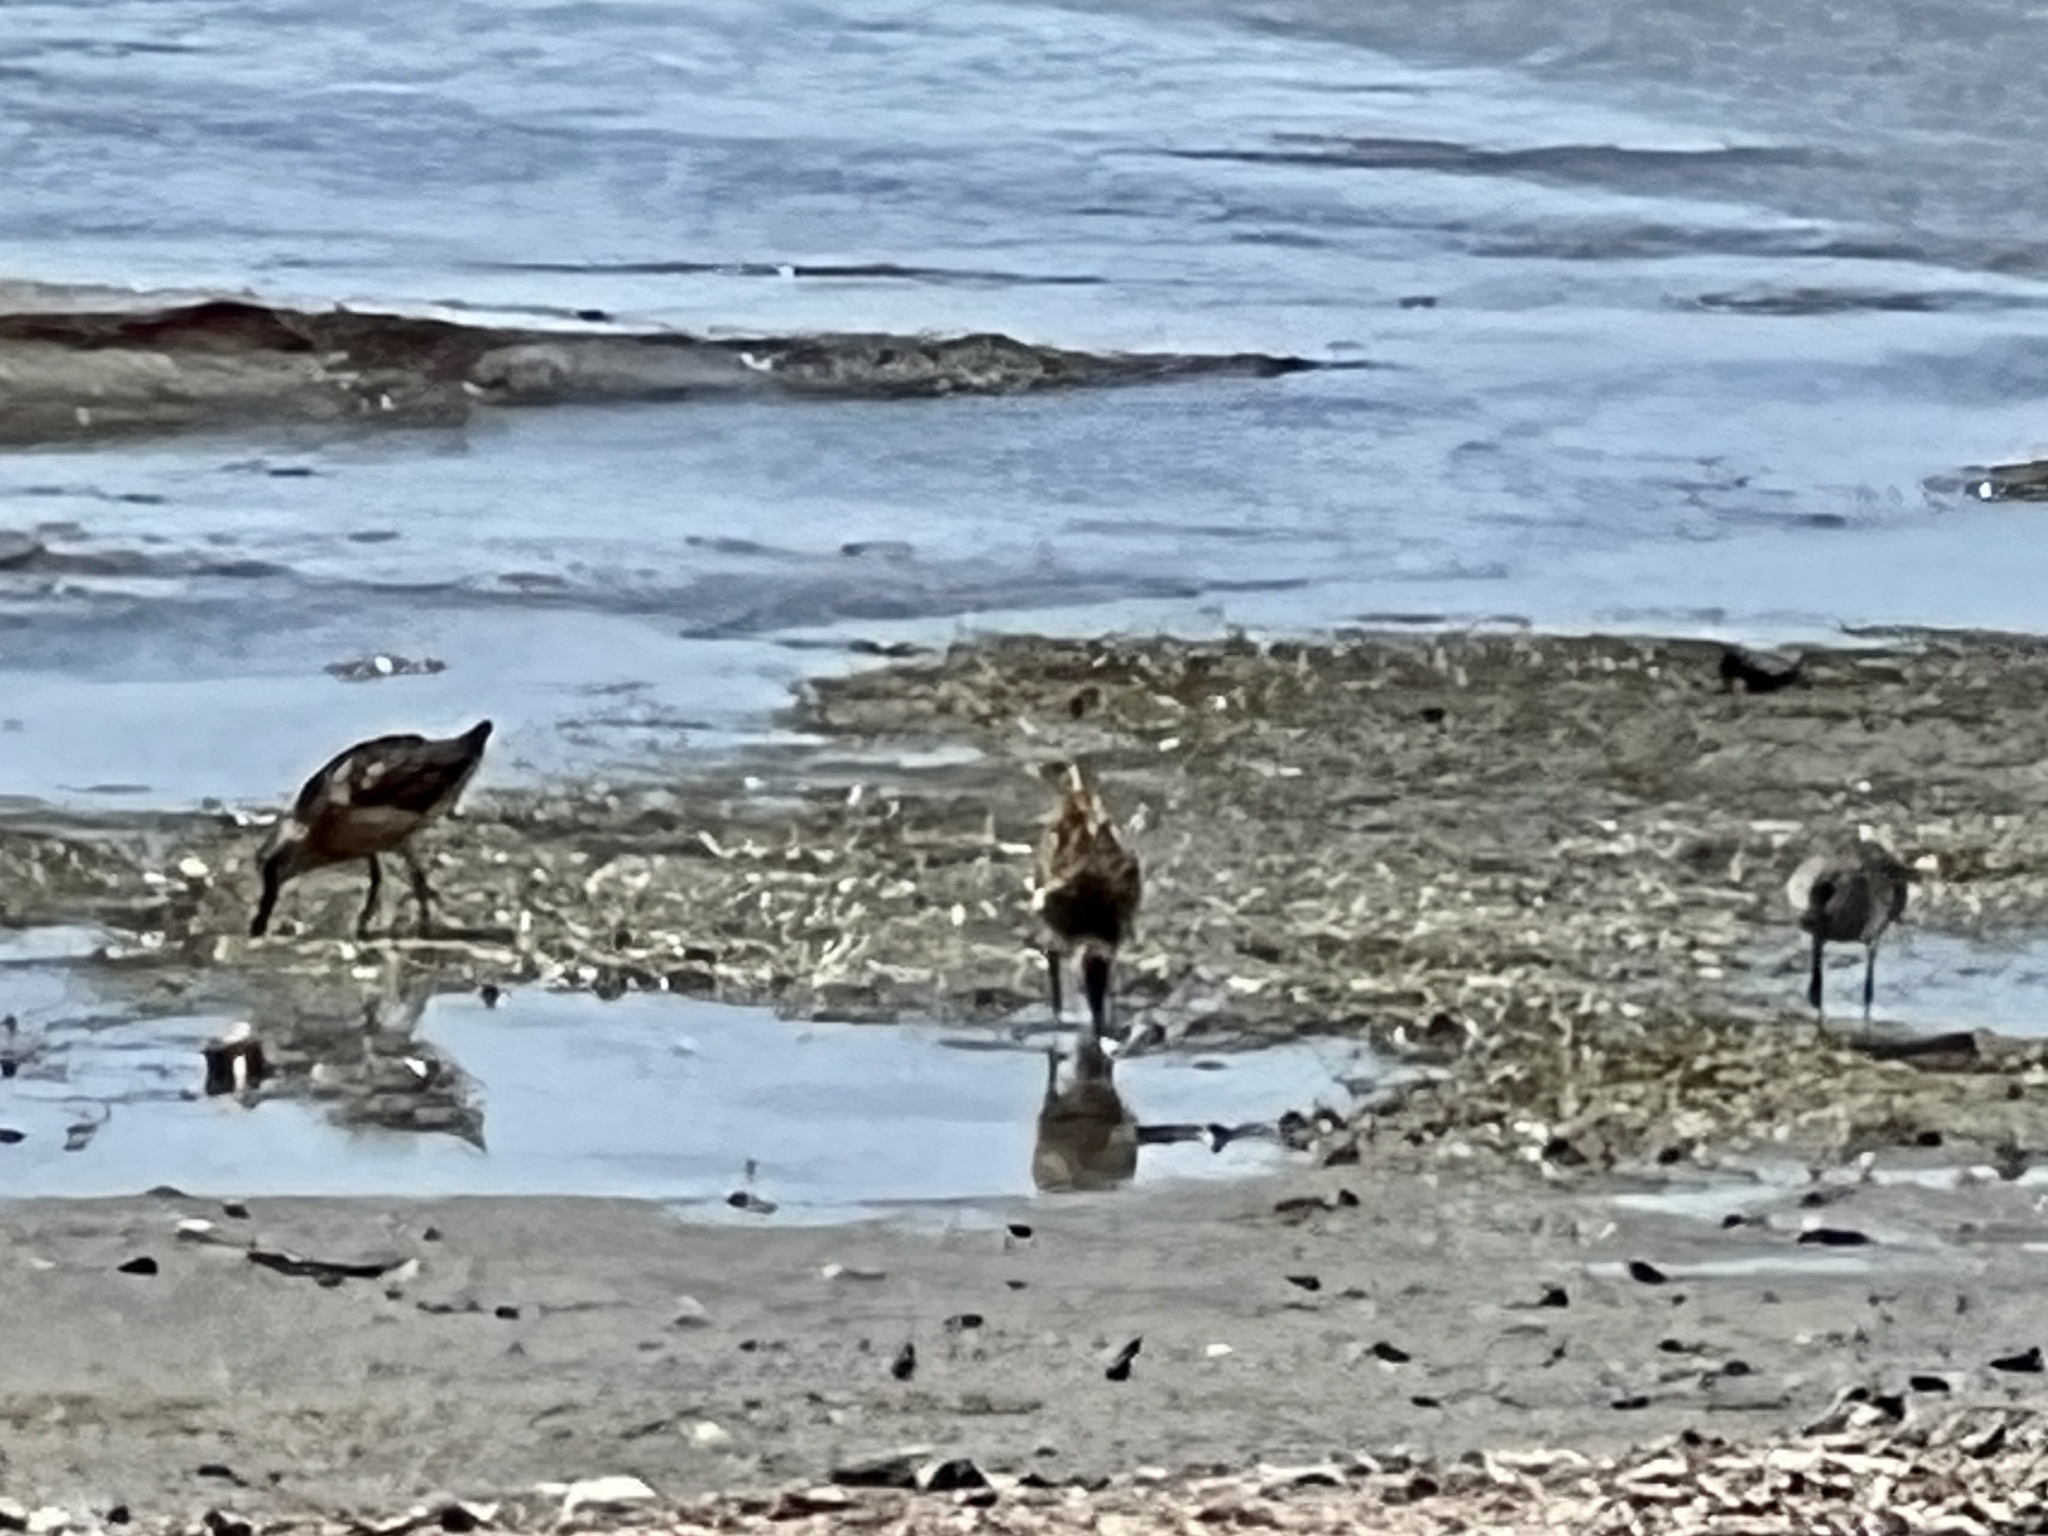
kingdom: Animalia
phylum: Chordata
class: Aves
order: Charadriiformes
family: Scolopacidae
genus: Limnodromus
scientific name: Limnodromus
